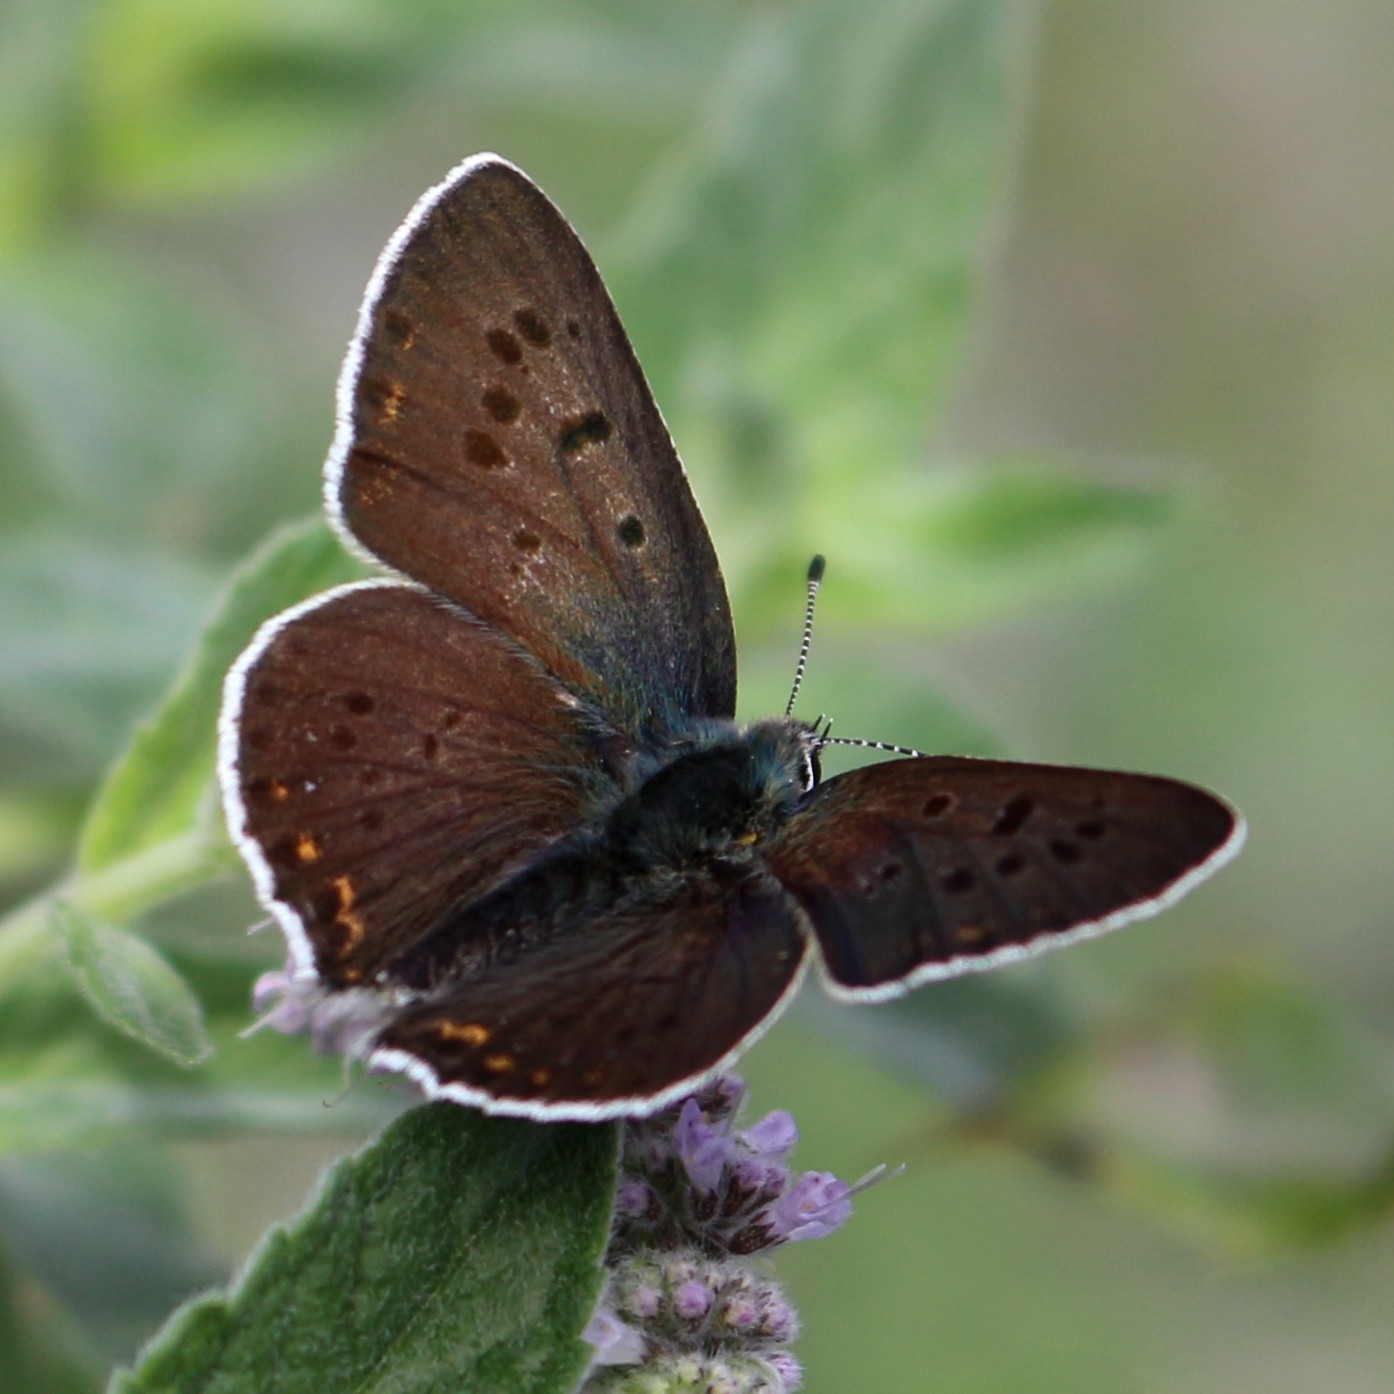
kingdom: Animalia
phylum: Arthropoda
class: Insecta
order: Lepidoptera
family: Lycaenidae
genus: Loweia
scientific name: Loweia tityrus
